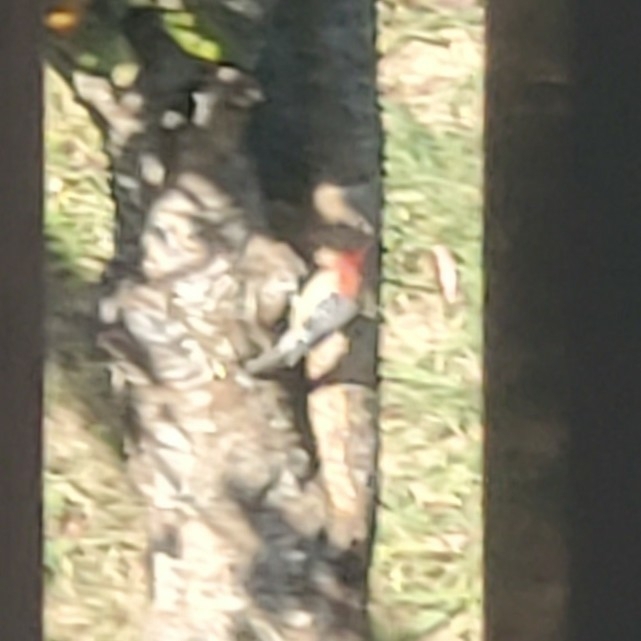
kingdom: Animalia
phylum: Chordata
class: Aves
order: Piciformes
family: Picidae
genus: Melanerpes
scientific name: Melanerpes carolinus
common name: Red-bellied woodpecker
